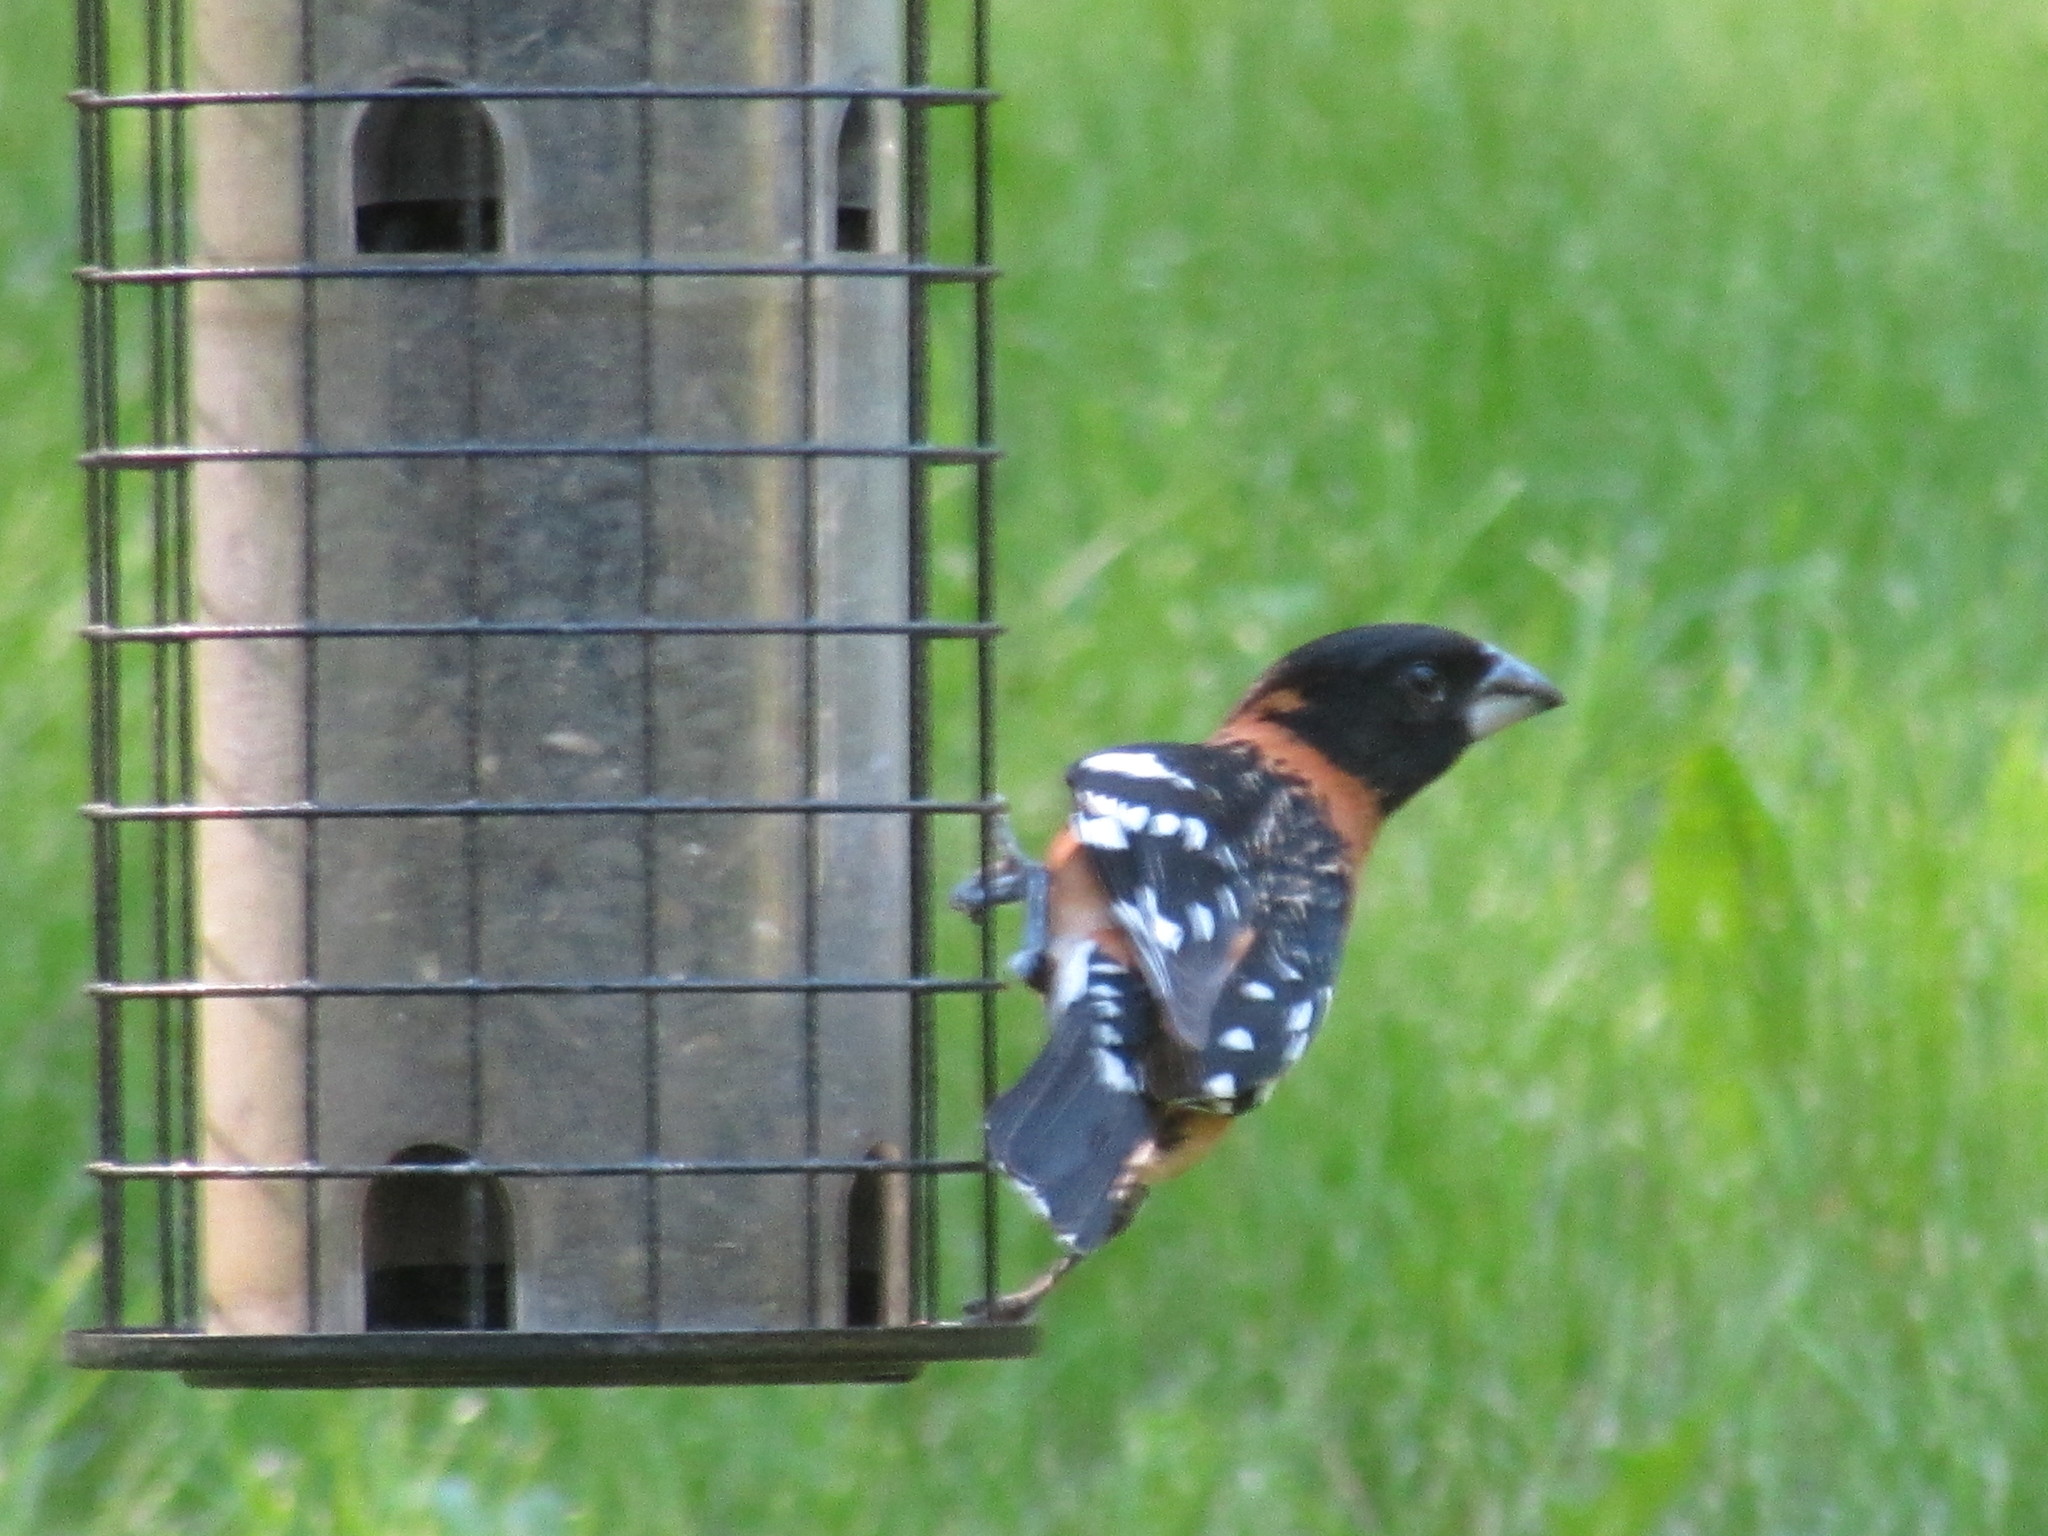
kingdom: Animalia
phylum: Chordata
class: Aves
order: Passeriformes
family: Cardinalidae
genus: Pheucticus
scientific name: Pheucticus melanocephalus
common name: Black-headed grosbeak
